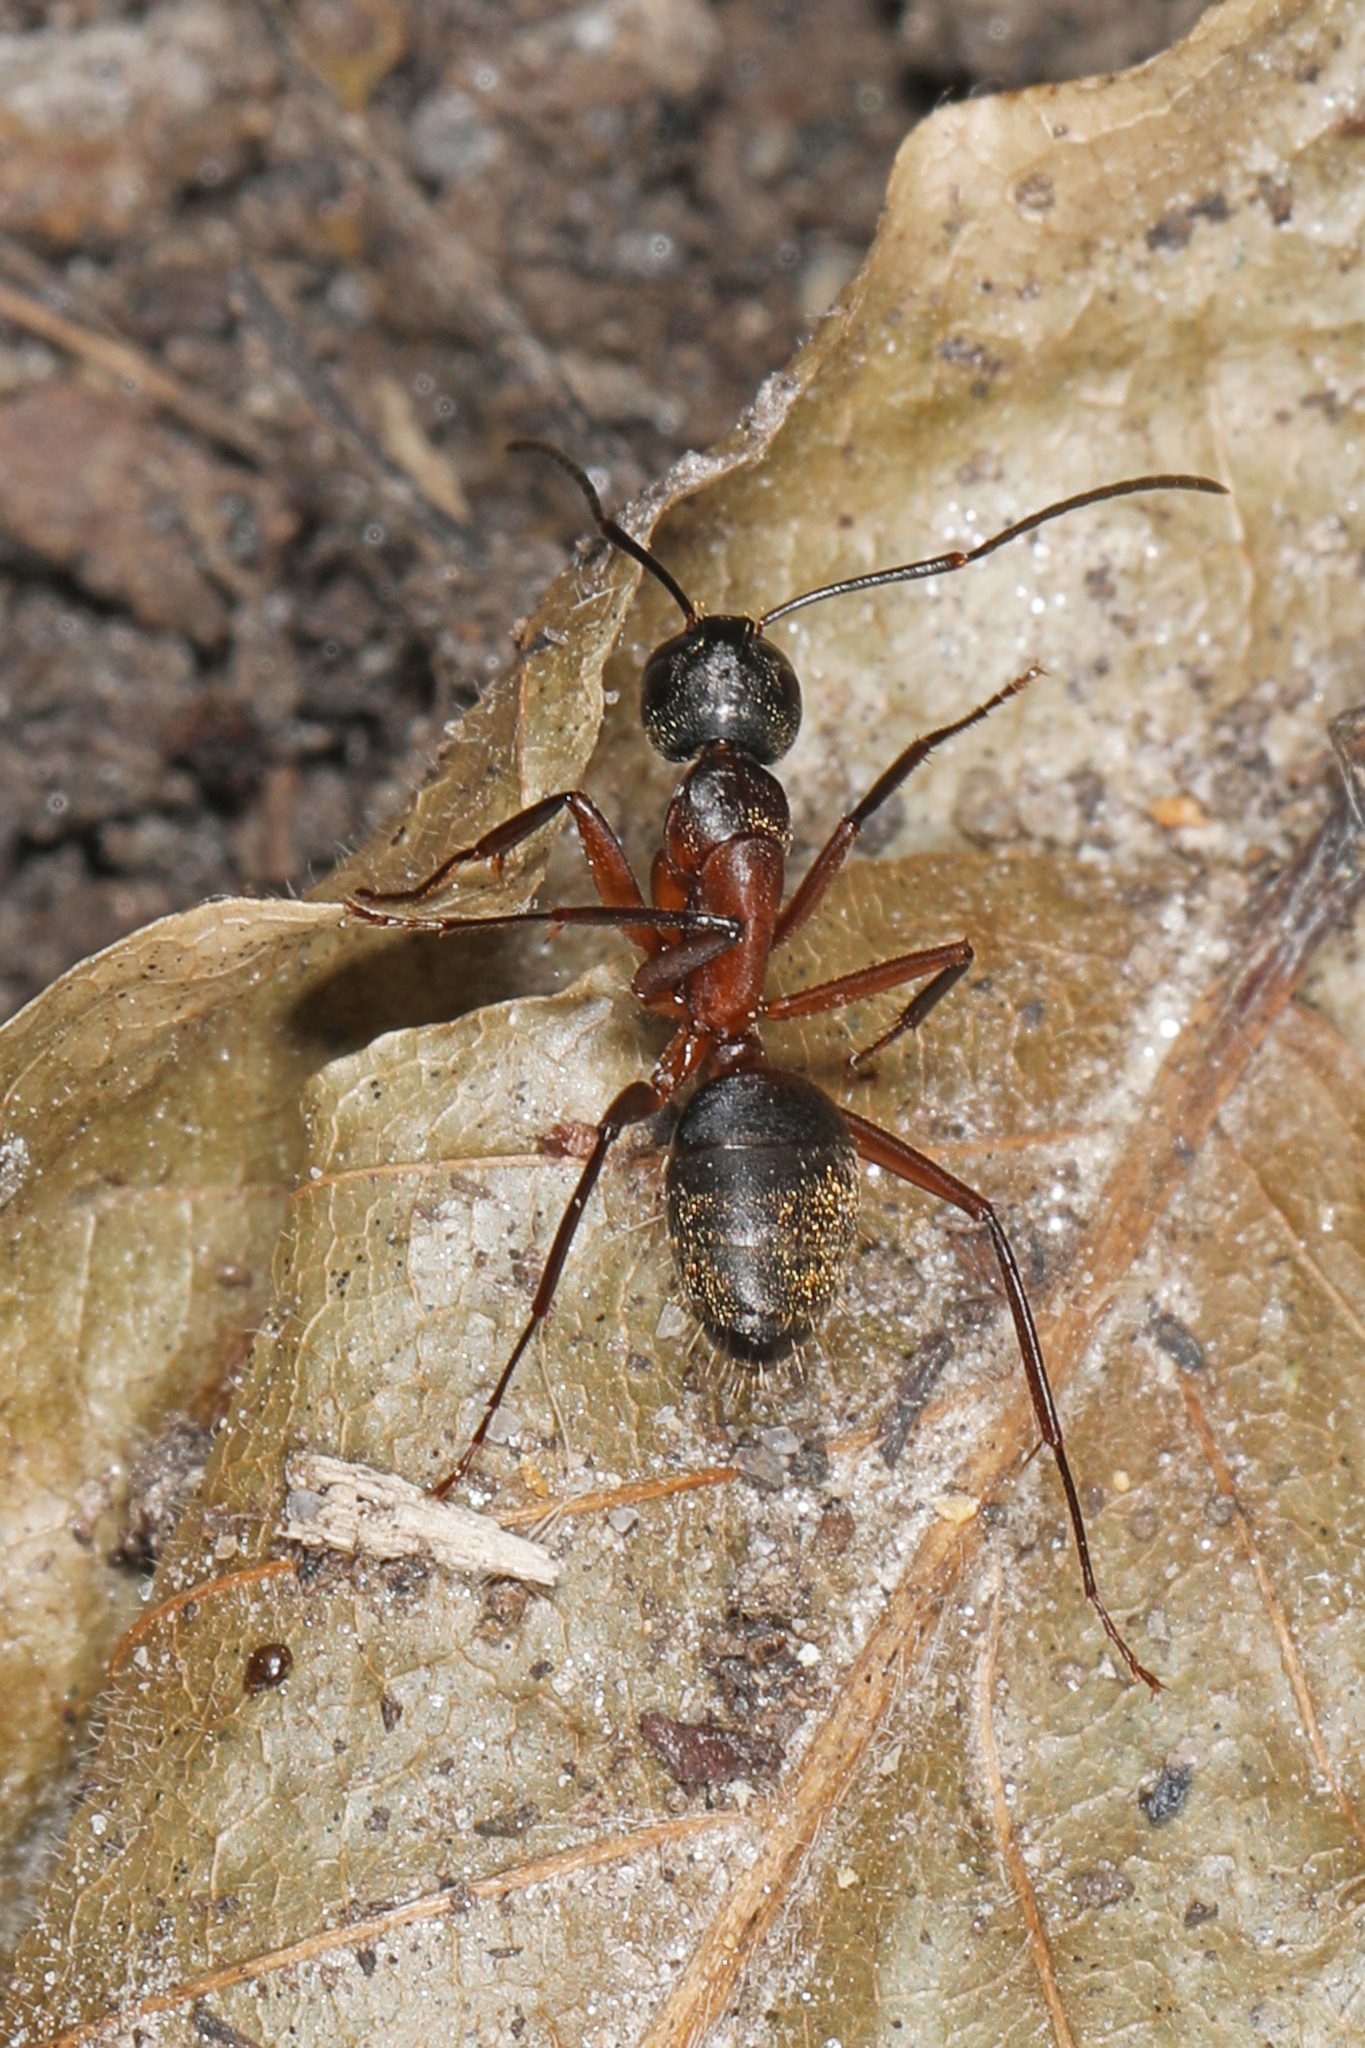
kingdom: Animalia
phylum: Arthropoda
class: Insecta
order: Hymenoptera
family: Formicidae
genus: Camponotus
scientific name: Camponotus chromaiodes
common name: Red carpenter ant
